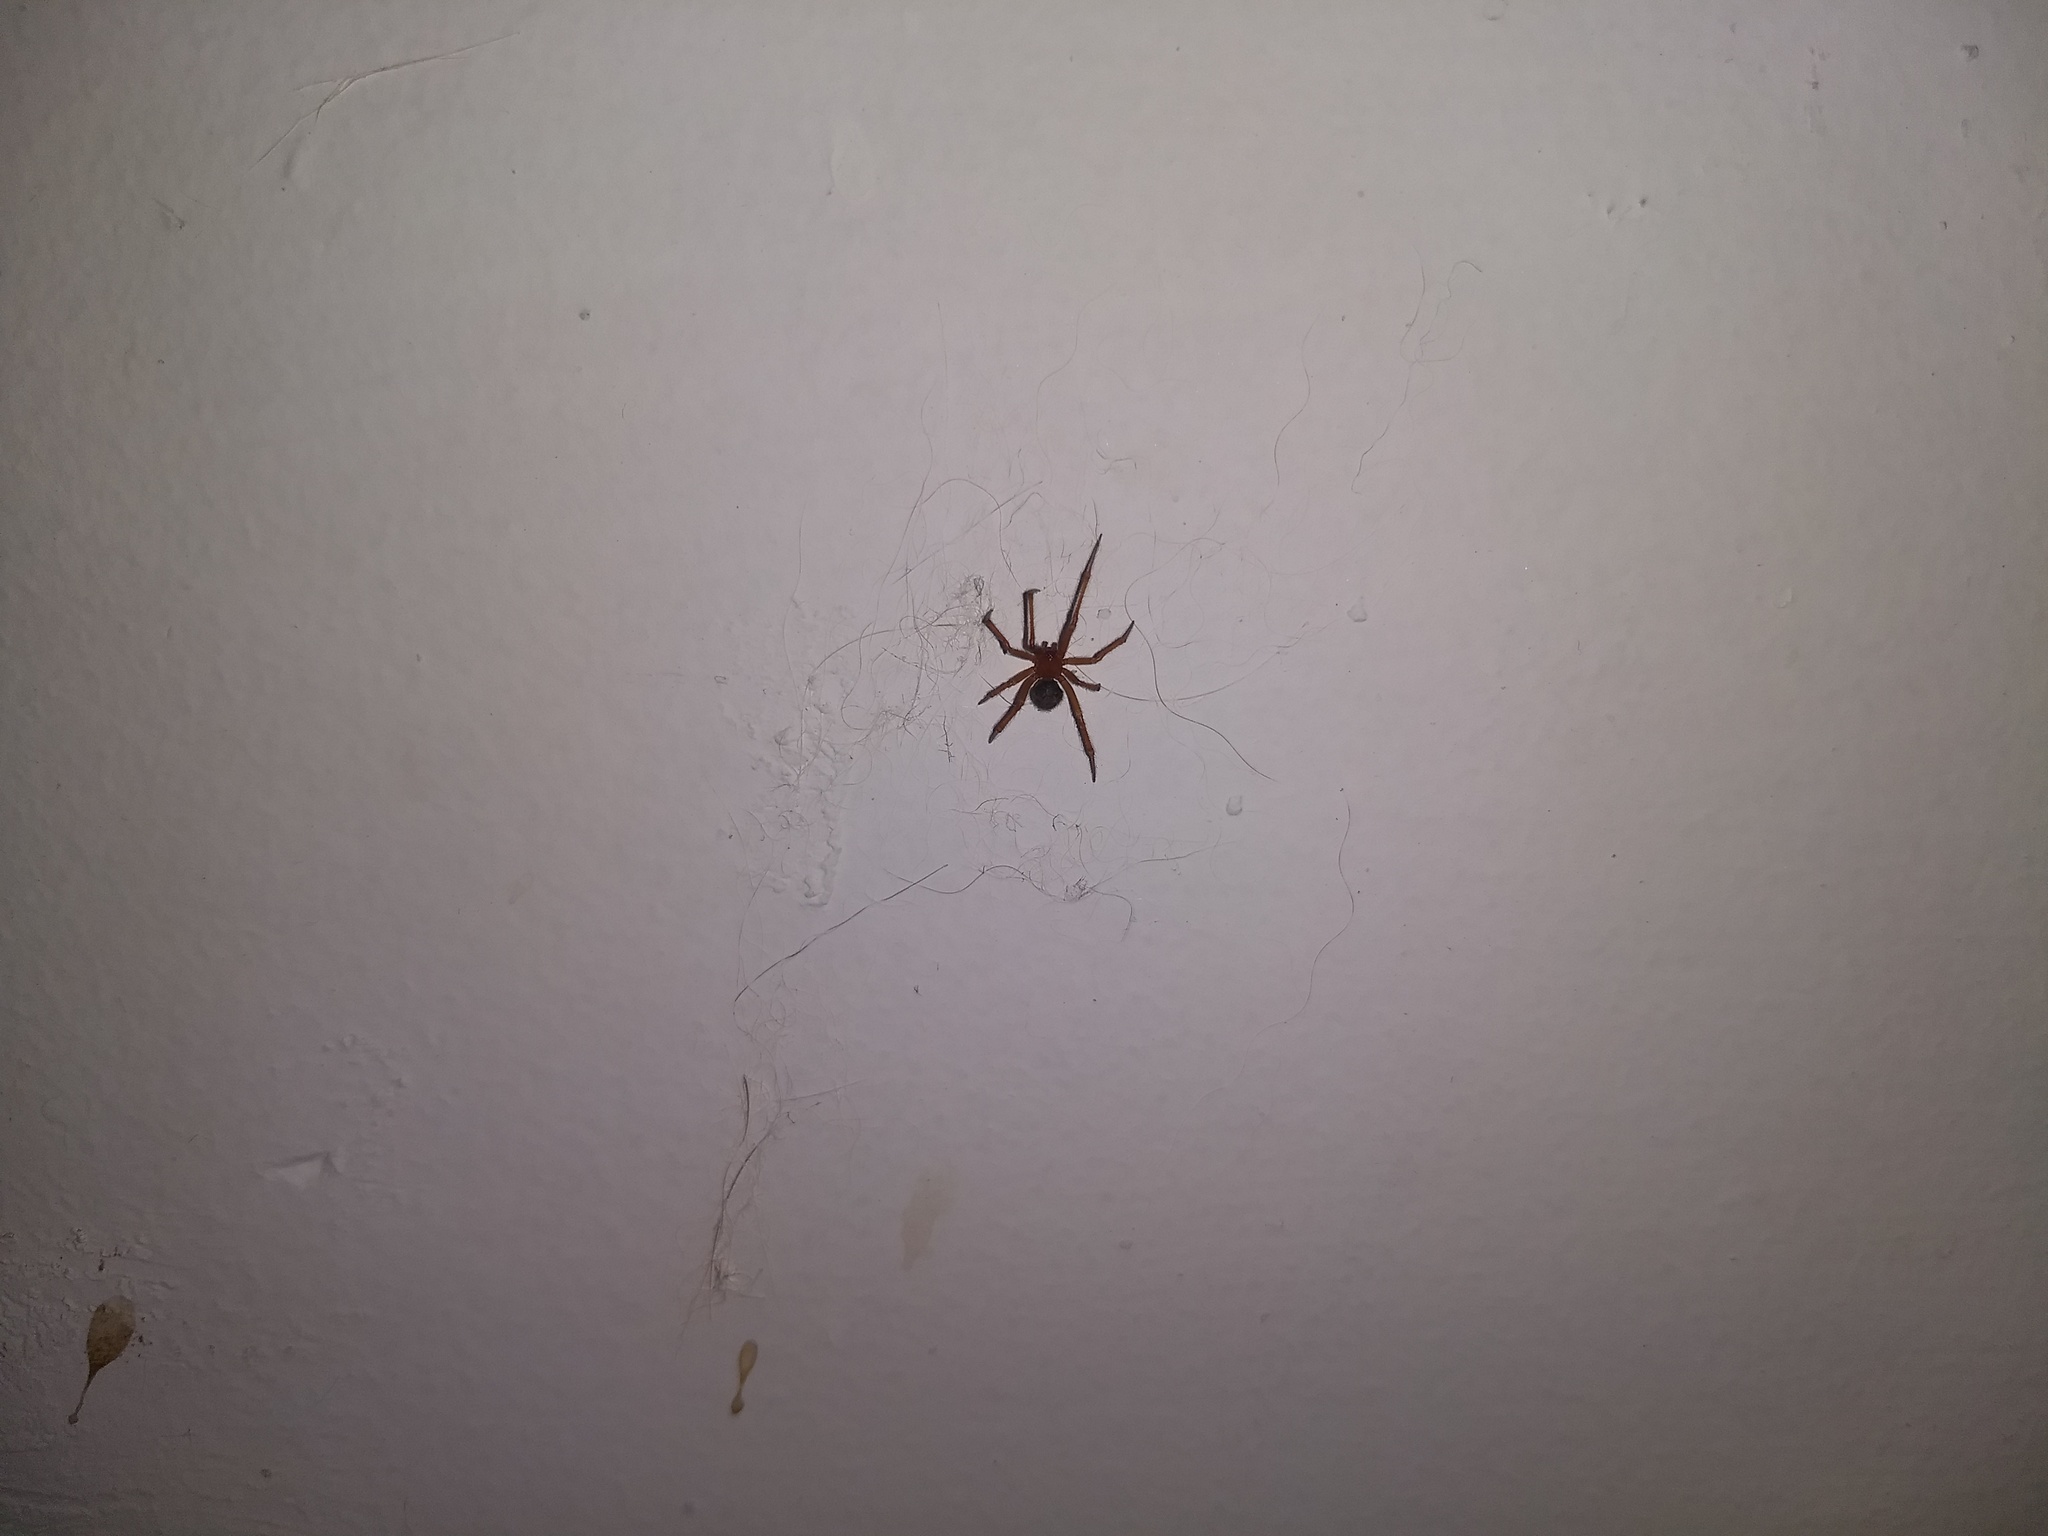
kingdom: Animalia
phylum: Arthropoda
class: Arachnida
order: Araneae
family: Theridiidae
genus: Nesticodes
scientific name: Nesticodes rufipes
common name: Cobweb spiders
